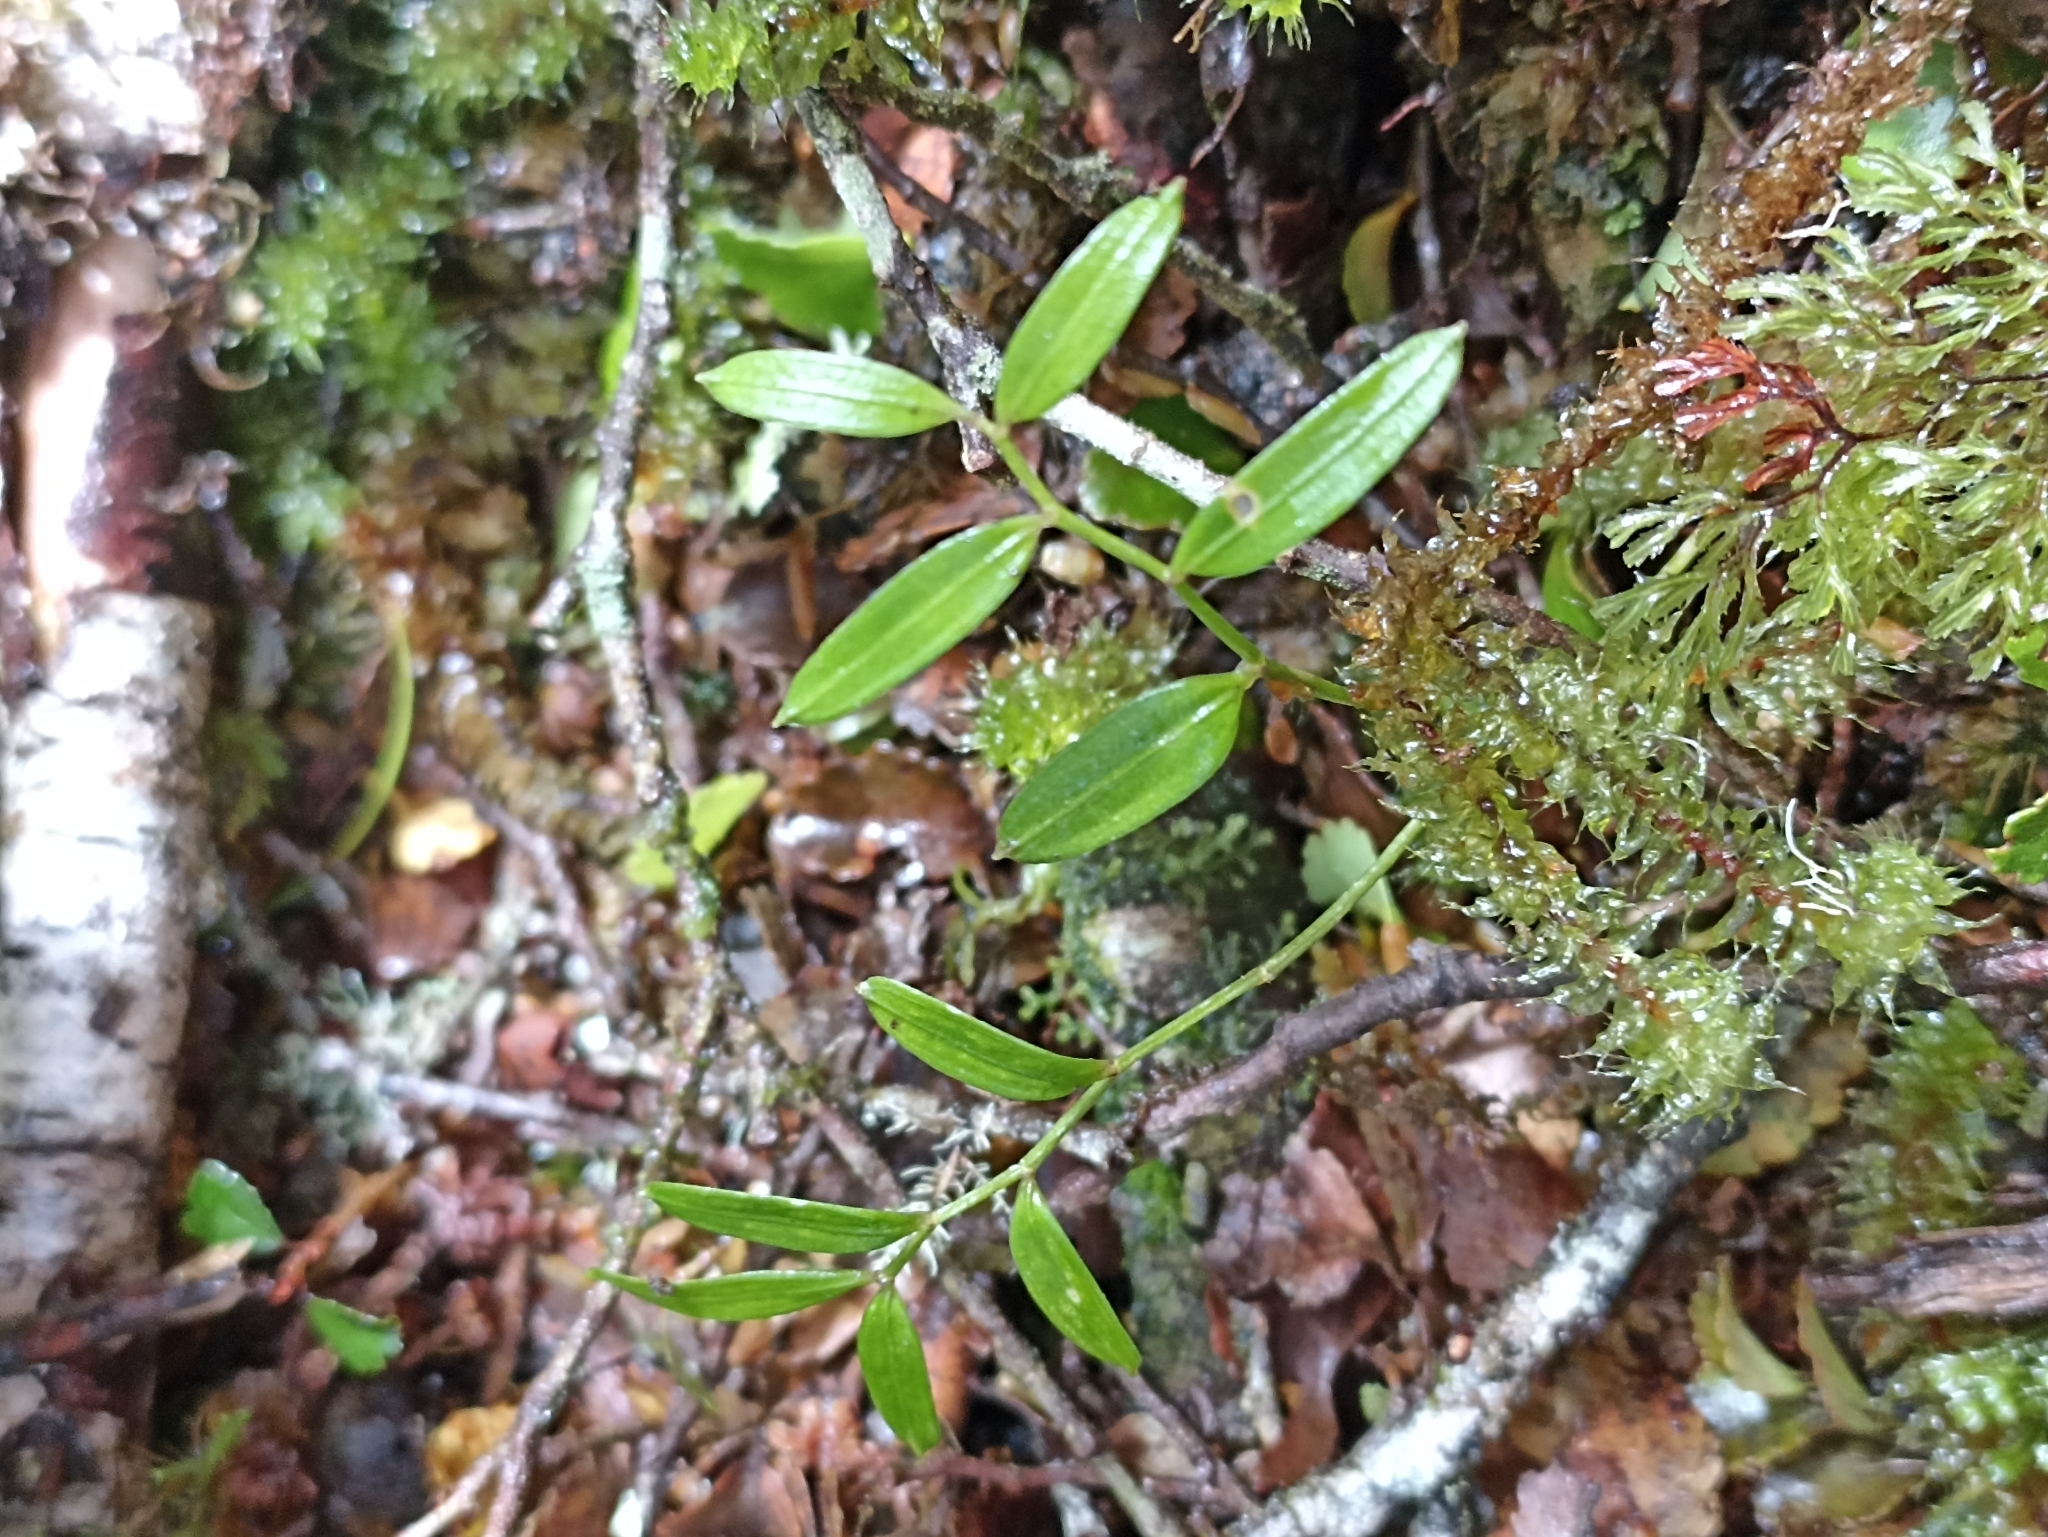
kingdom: Plantae
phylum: Tracheophyta
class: Liliopsida
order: Liliales
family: Alstroemeriaceae
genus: Luzuriaga
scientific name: Luzuriaga parviflora
